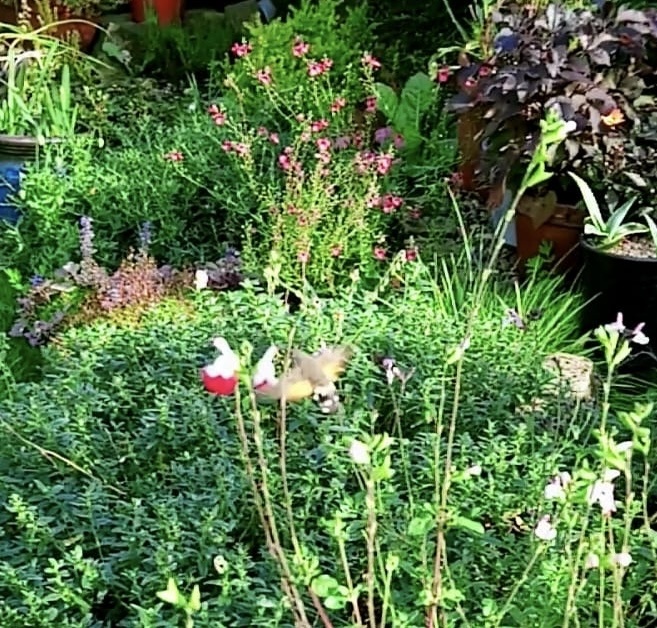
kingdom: Animalia
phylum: Arthropoda
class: Insecta
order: Lepidoptera
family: Sphingidae
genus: Macroglossum
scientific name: Macroglossum stellatarum
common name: Humming-bird hawk-moth
